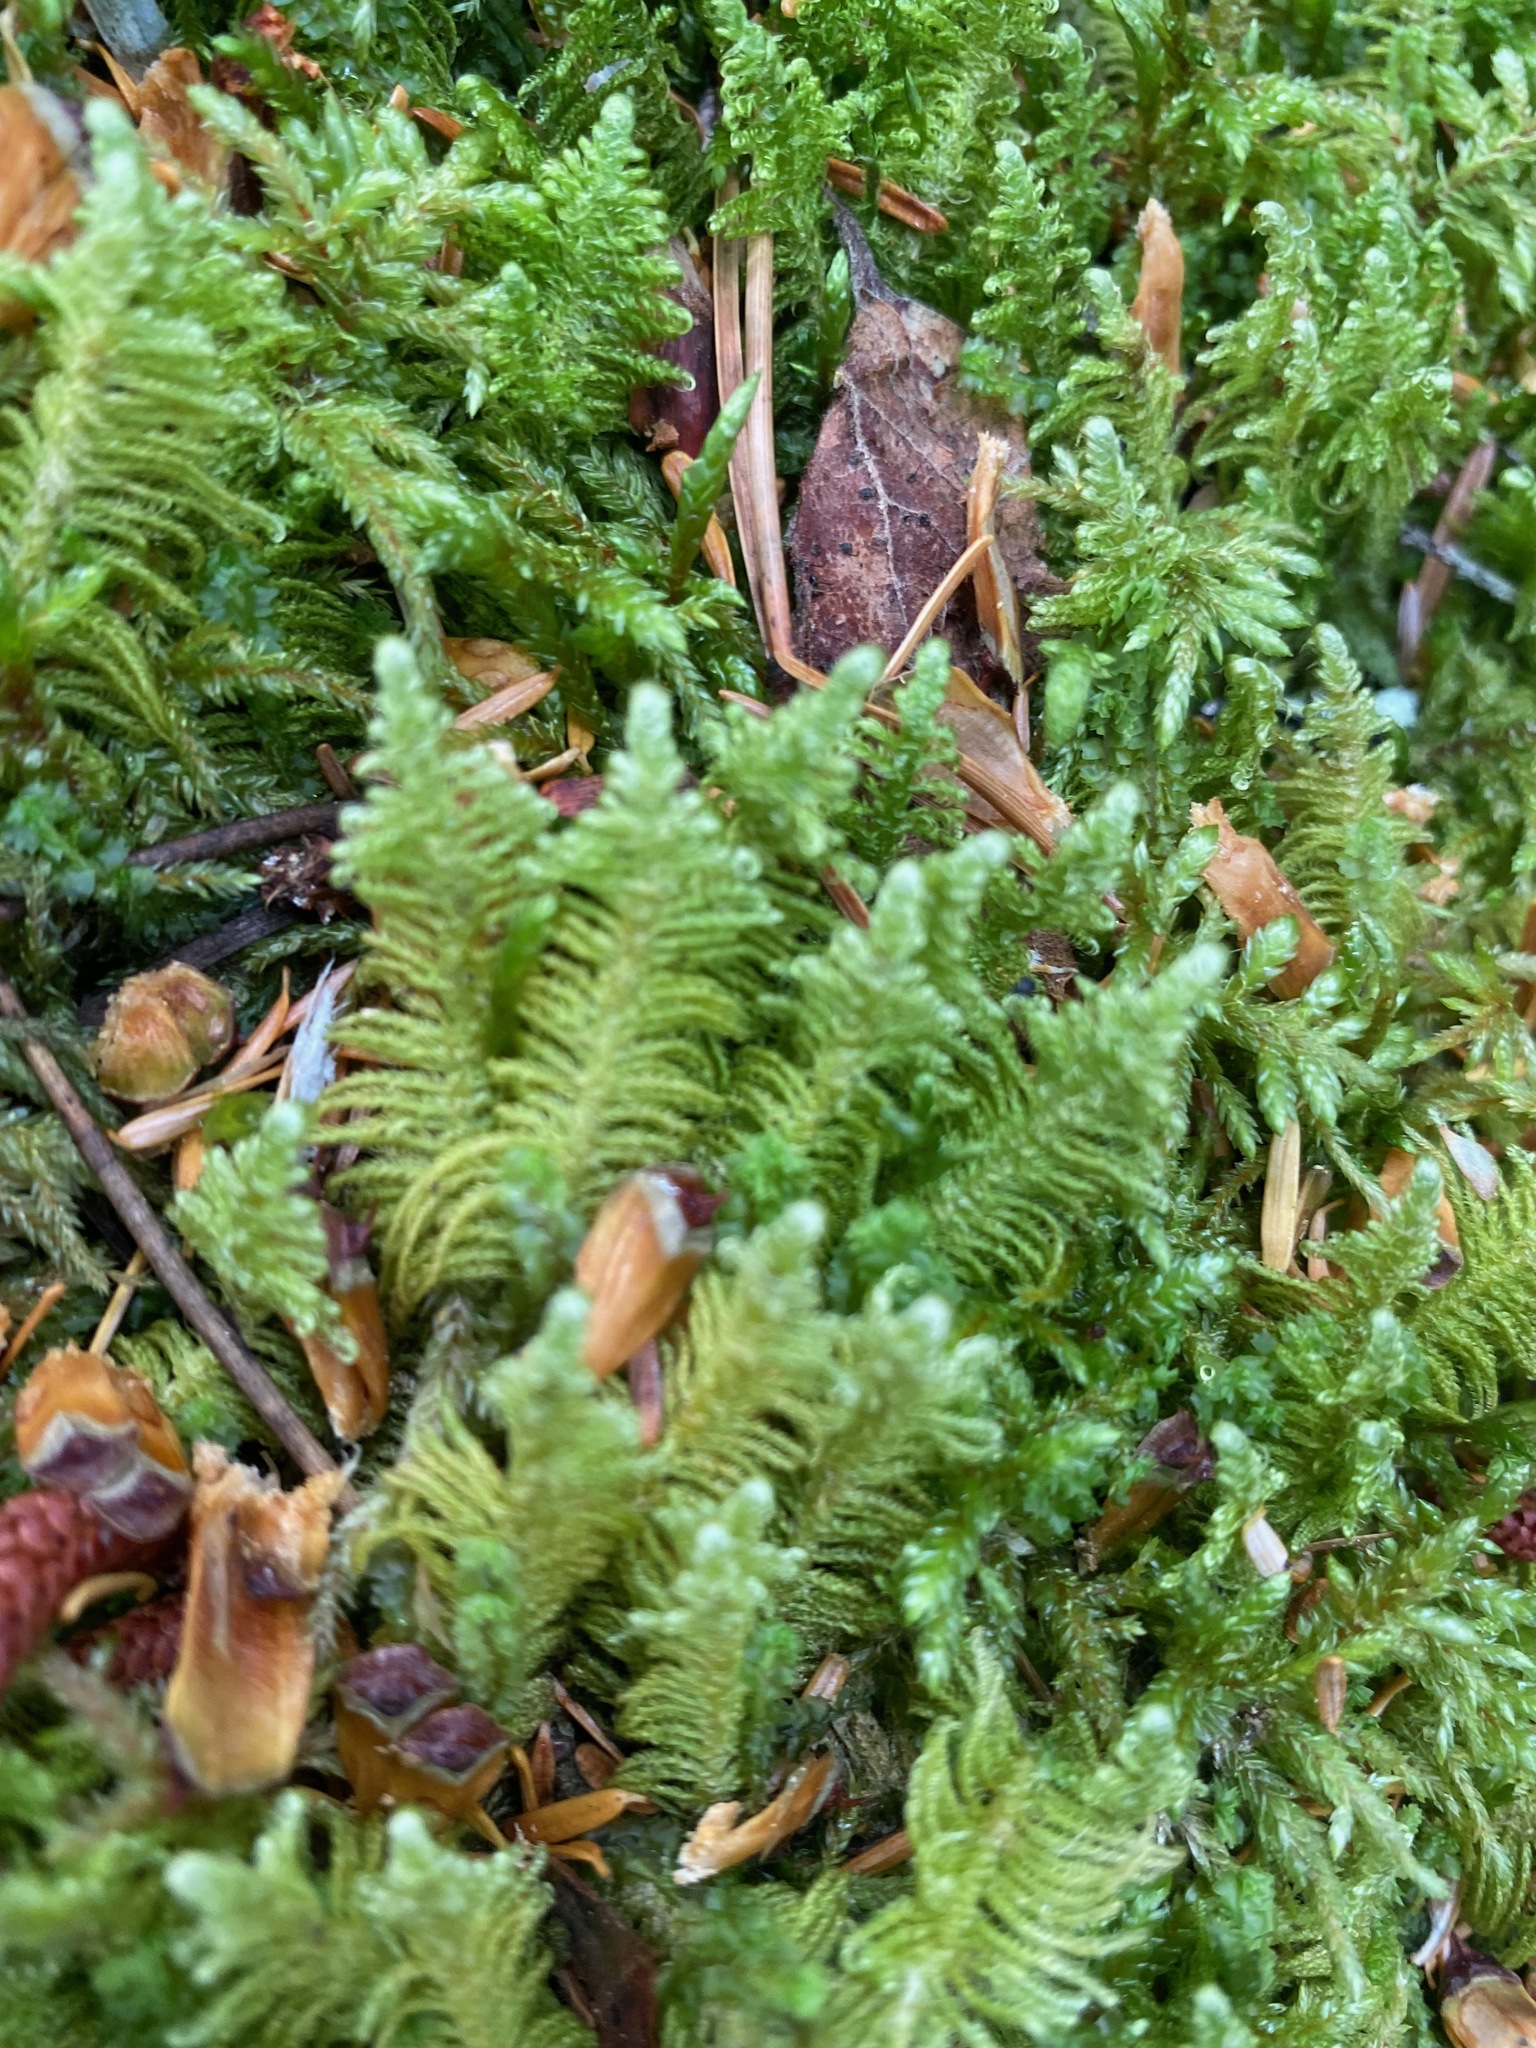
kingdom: Plantae
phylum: Bryophyta
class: Bryopsida
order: Hypnales
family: Pylaisiaceae
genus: Ptilium
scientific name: Ptilium crista-castrensis
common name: Knight's plume moss
